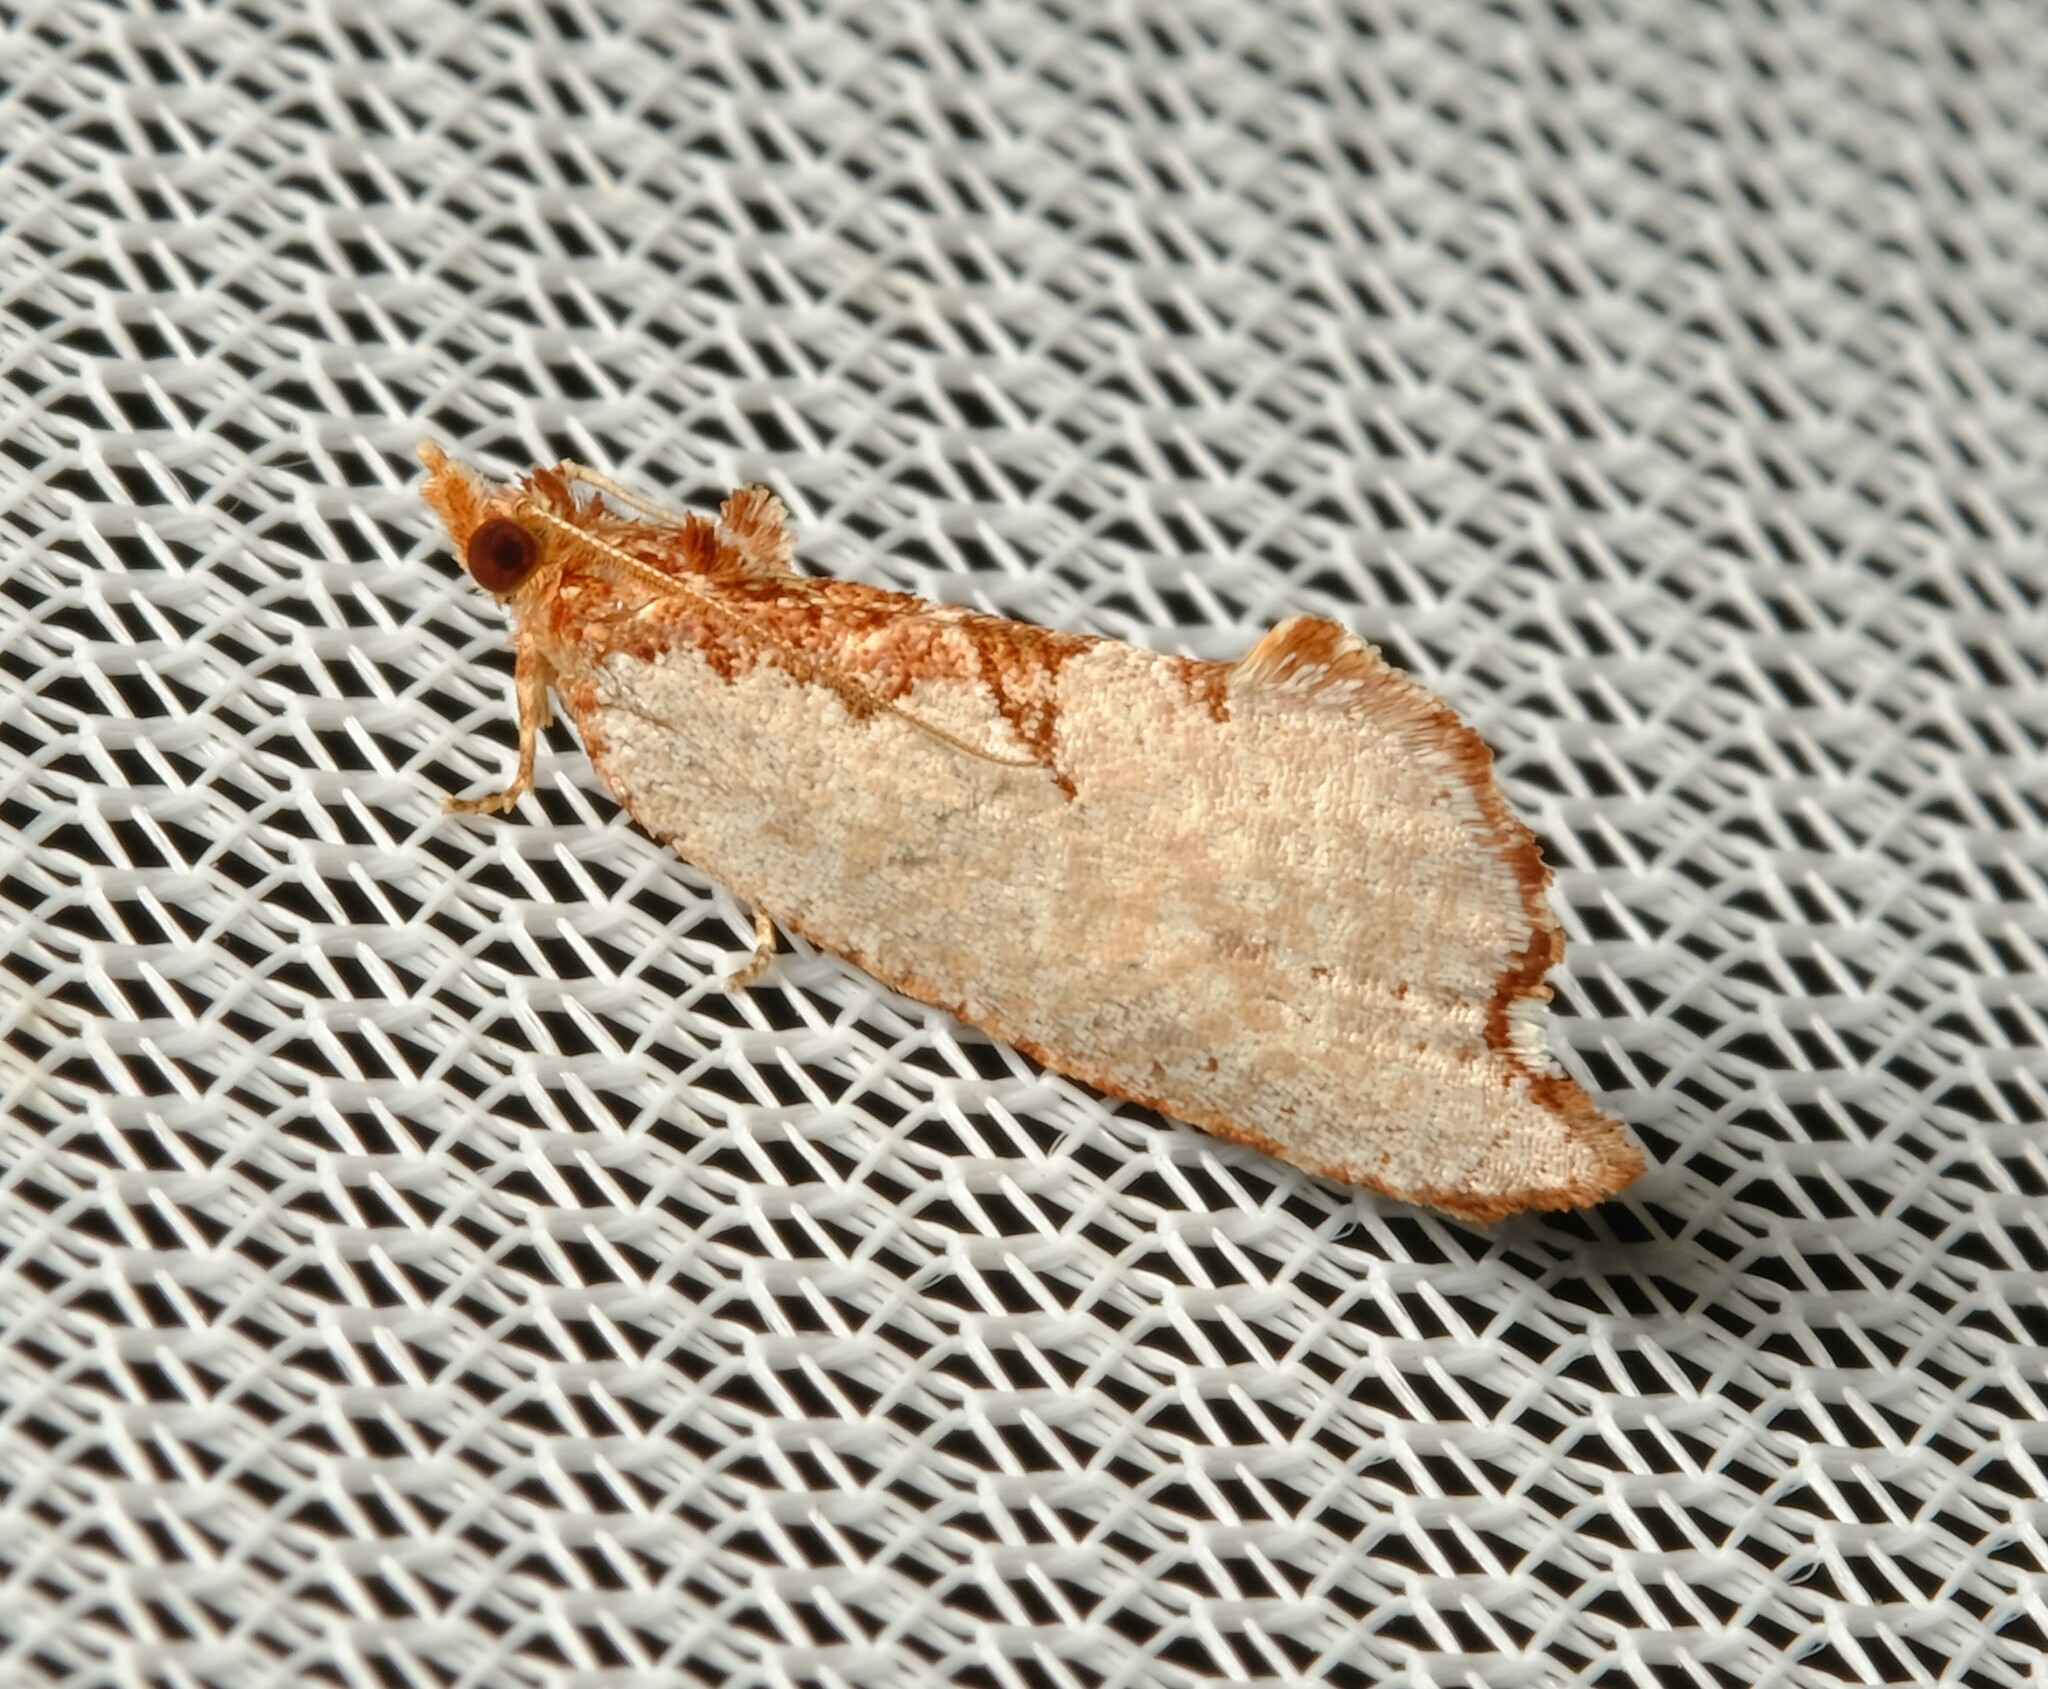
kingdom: Animalia
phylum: Arthropoda
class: Insecta
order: Lepidoptera
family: Tortricidae
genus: Glyphidoptera
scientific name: Glyphidoptera polymita
